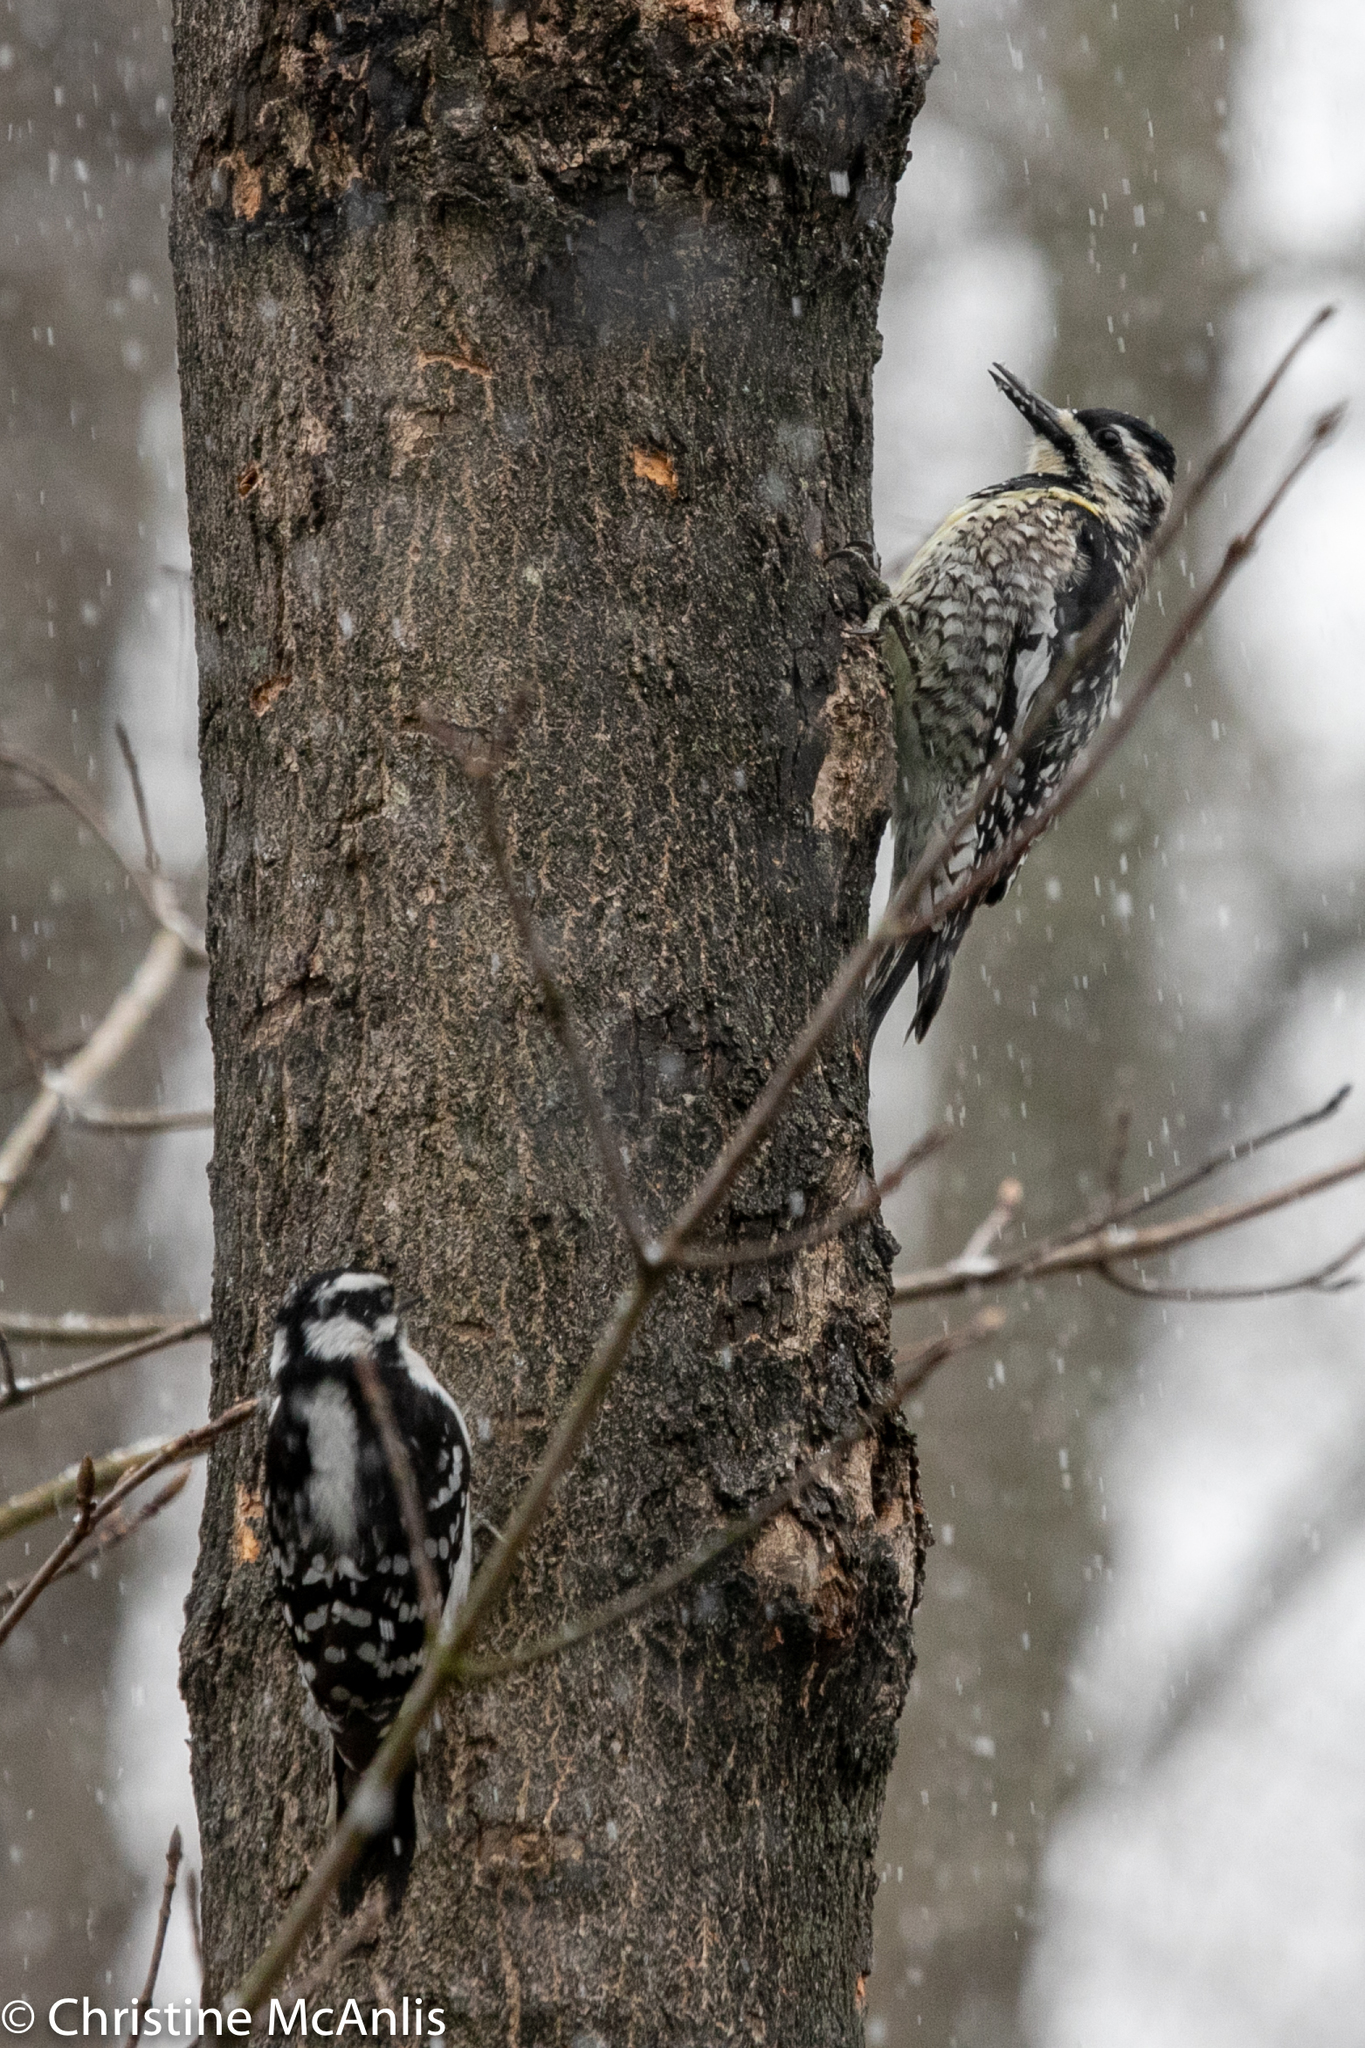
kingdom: Animalia
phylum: Chordata
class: Aves
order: Piciformes
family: Picidae
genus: Sphyrapicus
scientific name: Sphyrapicus varius
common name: Yellow-bellied sapsucker
